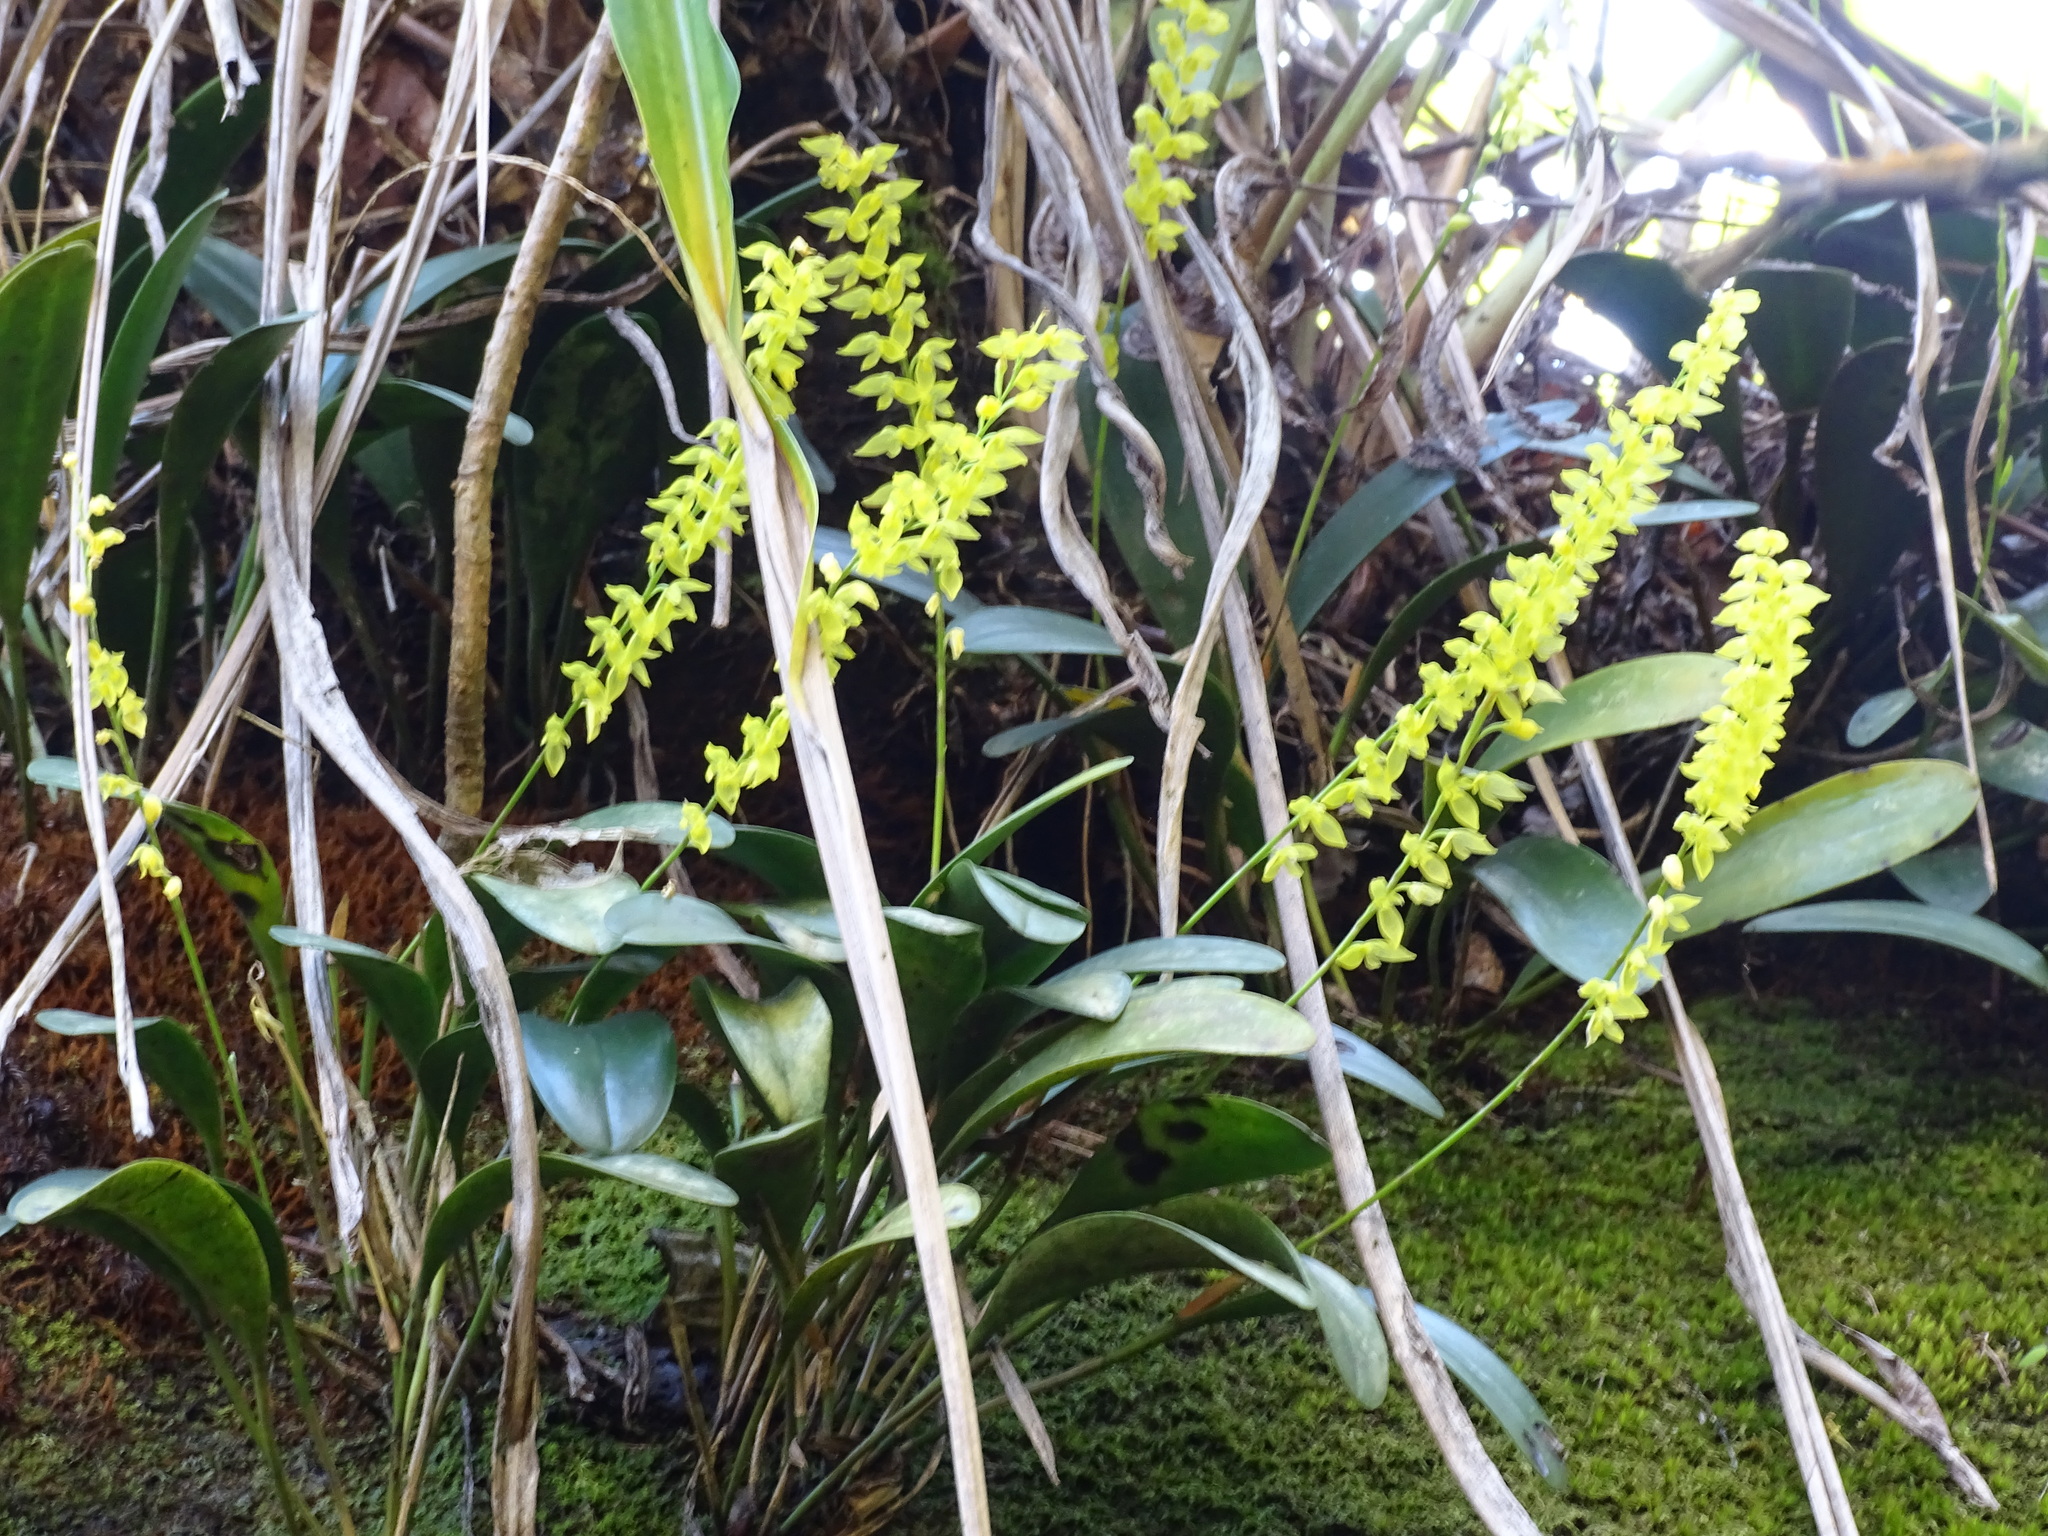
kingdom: Plantae
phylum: Tracheophyta
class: Liliopsida
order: Asparagales
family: Orchidaceae
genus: Pleurothallis
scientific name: Pleurothallis quadrifida
